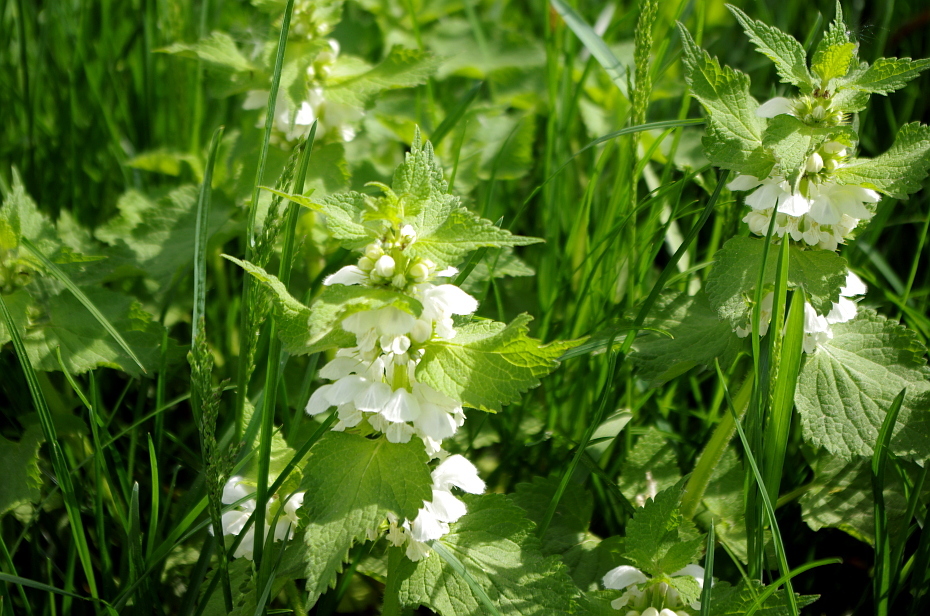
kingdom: Plantae
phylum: Tracheophyta
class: Magnoliopsida
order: Lamiales
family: Lamiaceae
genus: Lamium
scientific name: Lamium album
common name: White dead-nettle
